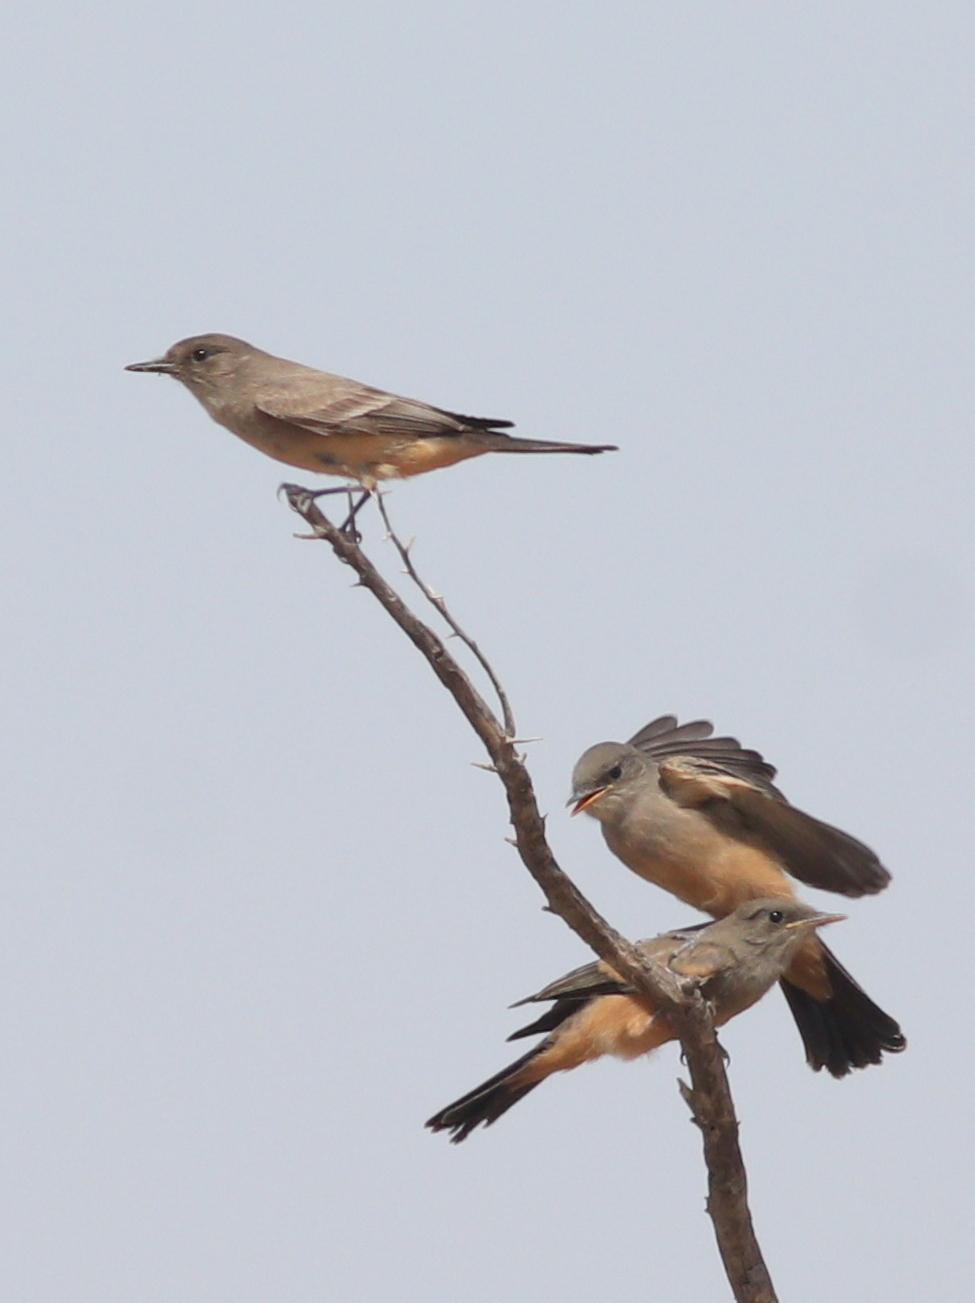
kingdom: Animalia
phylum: Chordata
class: Aves
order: Passeriformes
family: Tyrannidae
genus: Sayornis
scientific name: Sayornis saya
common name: Say's phoebe
